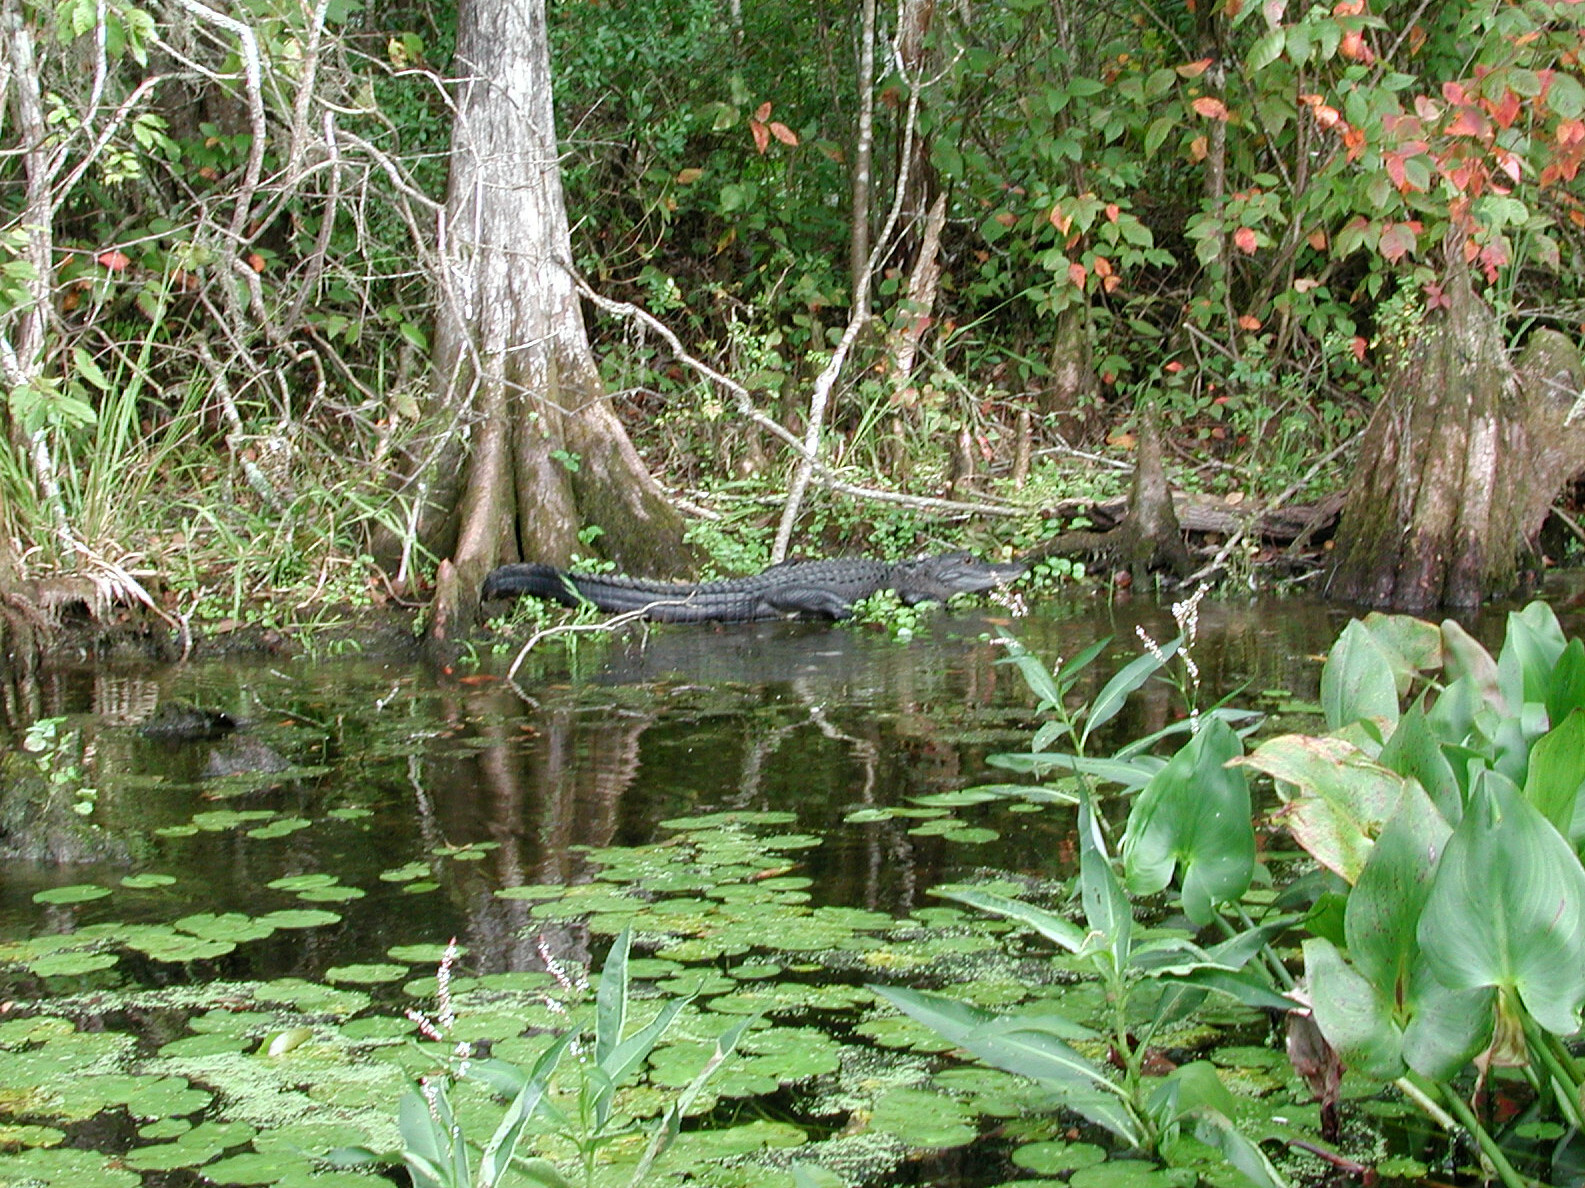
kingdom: Animalia
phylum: Chordata
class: Crocodylia
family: Alligatoridae
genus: Alligator
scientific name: Alligator mississippiensis
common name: American alligator
